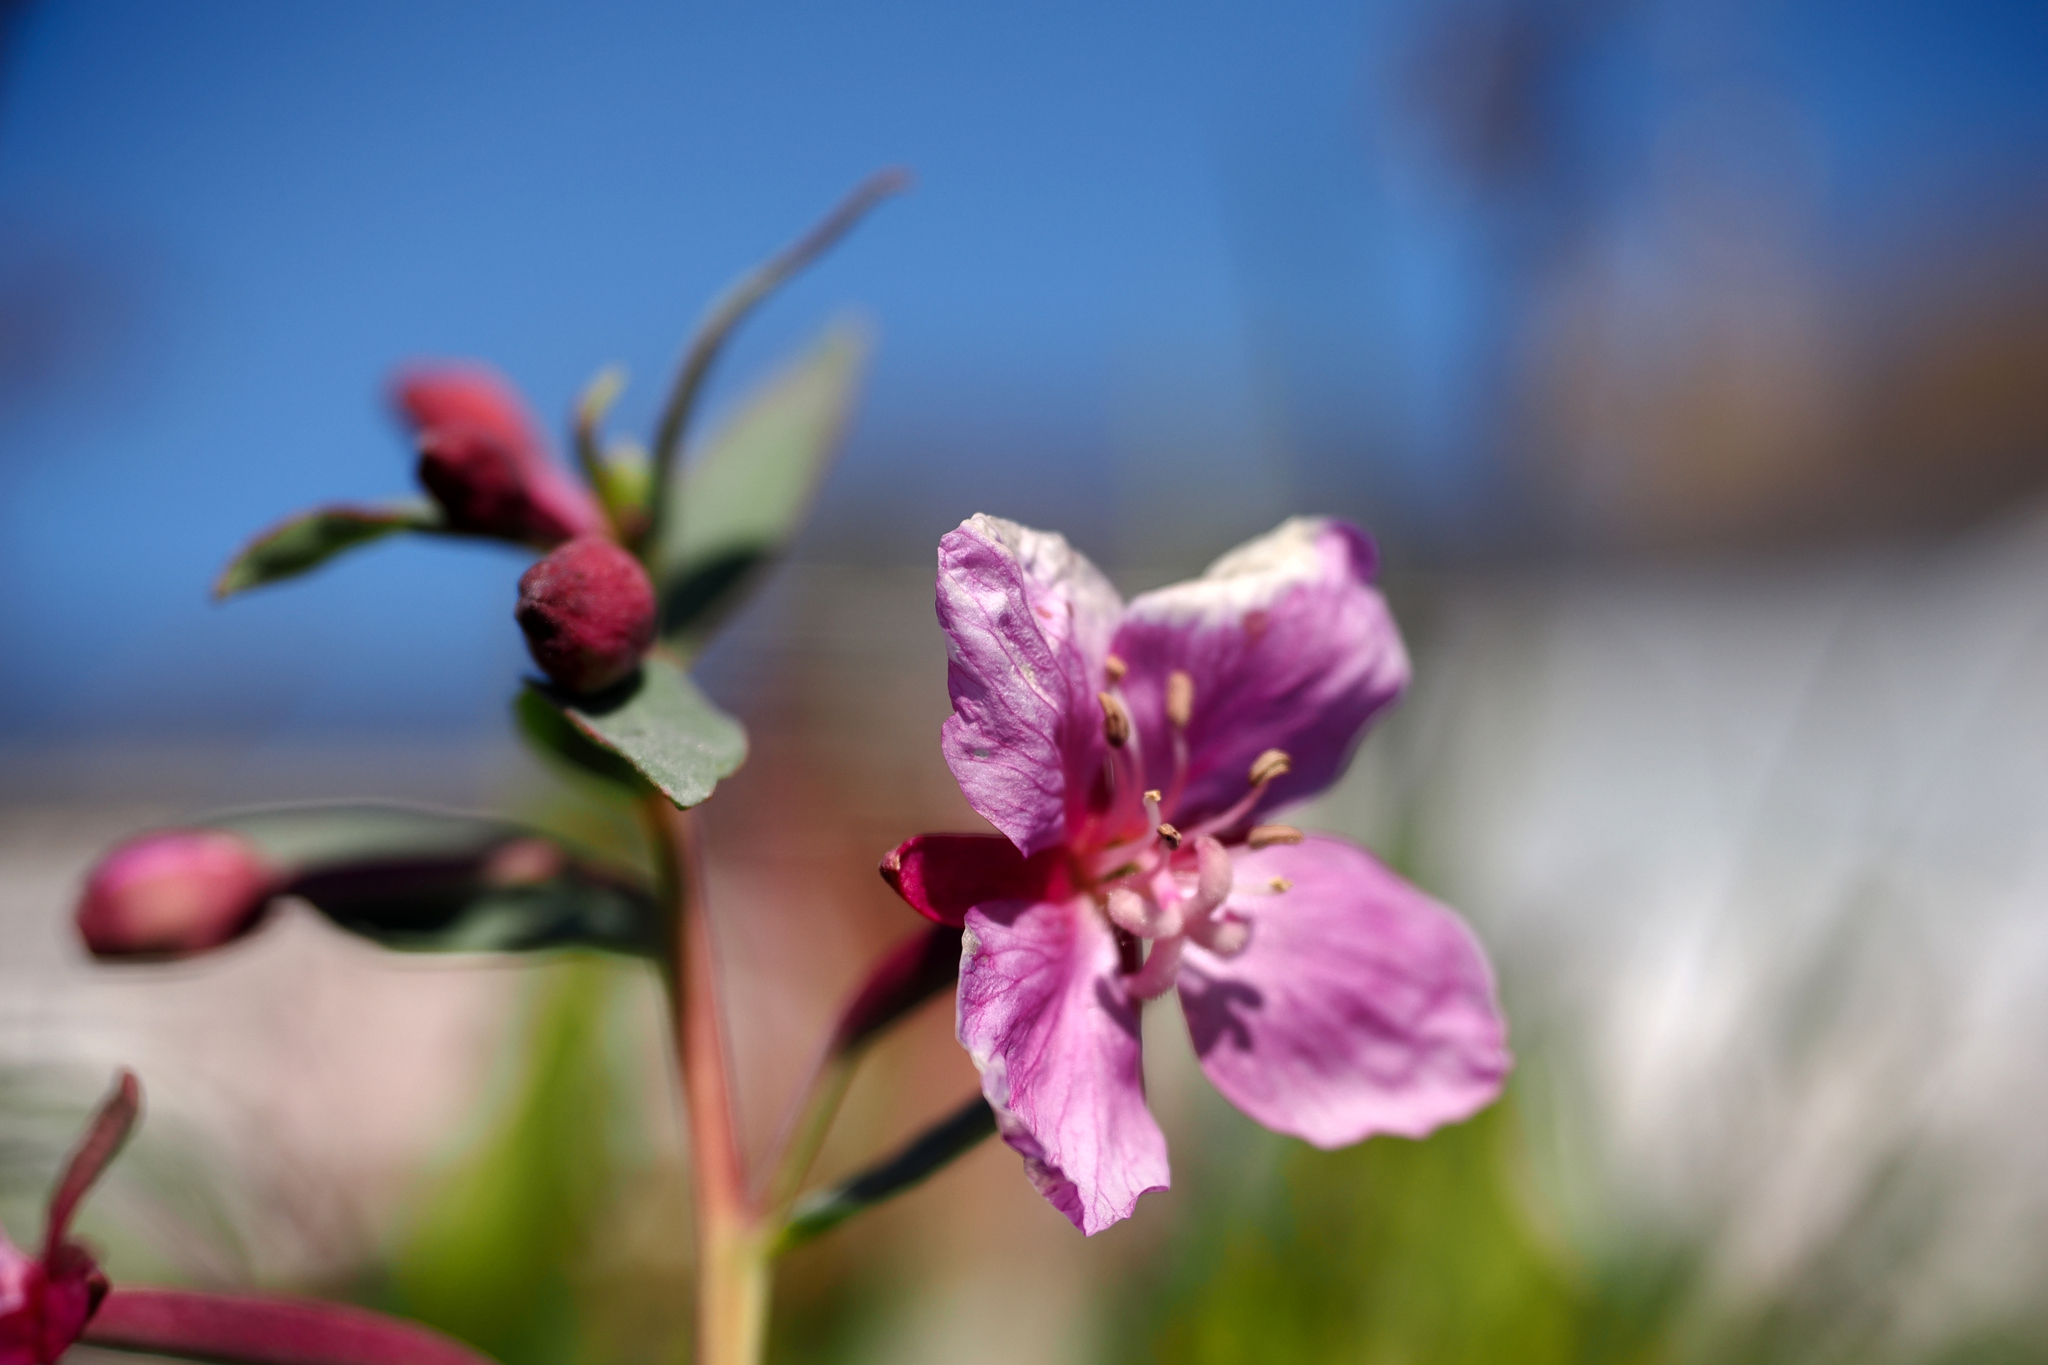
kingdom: Plantae
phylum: Tracheophyta
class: Magnoliopsida
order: Myrtales
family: Onagraceae
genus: Chamaenerion
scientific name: Chamaenerion latifolium
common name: Dwarf fireweed
